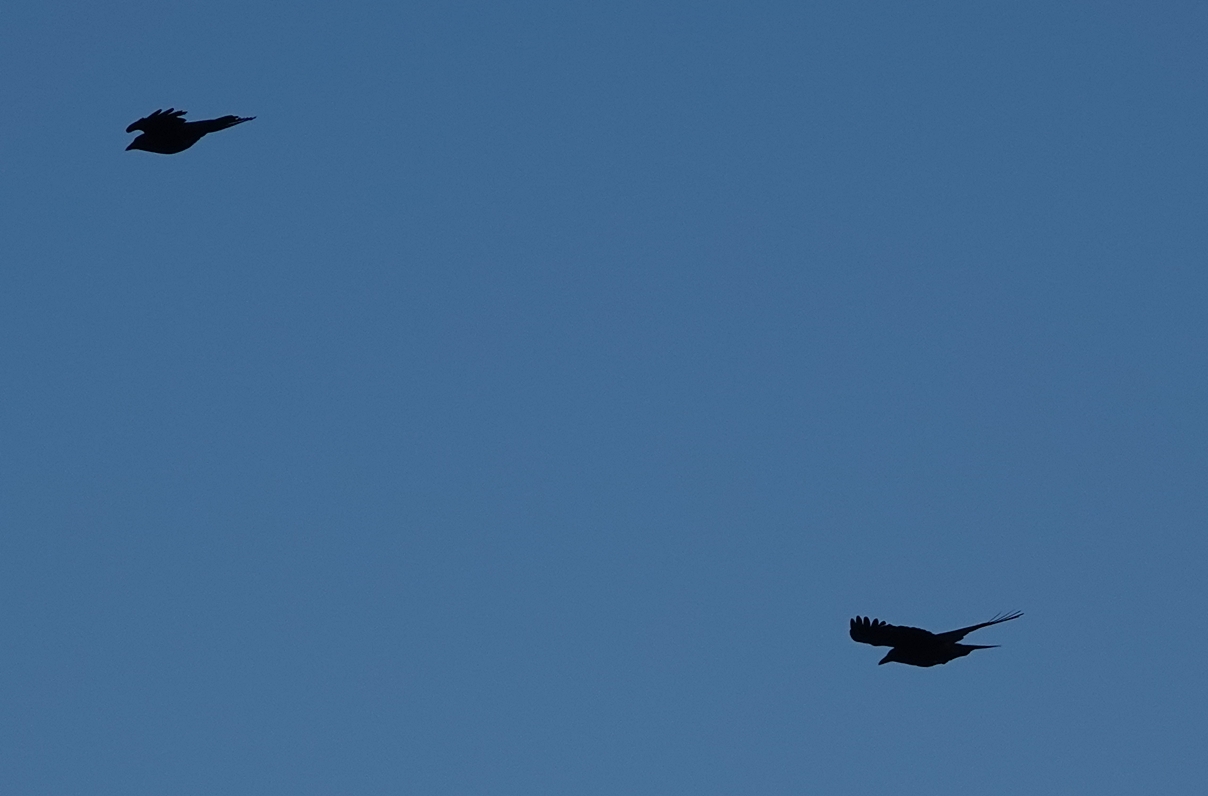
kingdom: Animalia
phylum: Chordata
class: Aves
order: Passeriformes
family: Corvidae
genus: Corvus
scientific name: Corvus brachyrhynchos
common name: American crow
